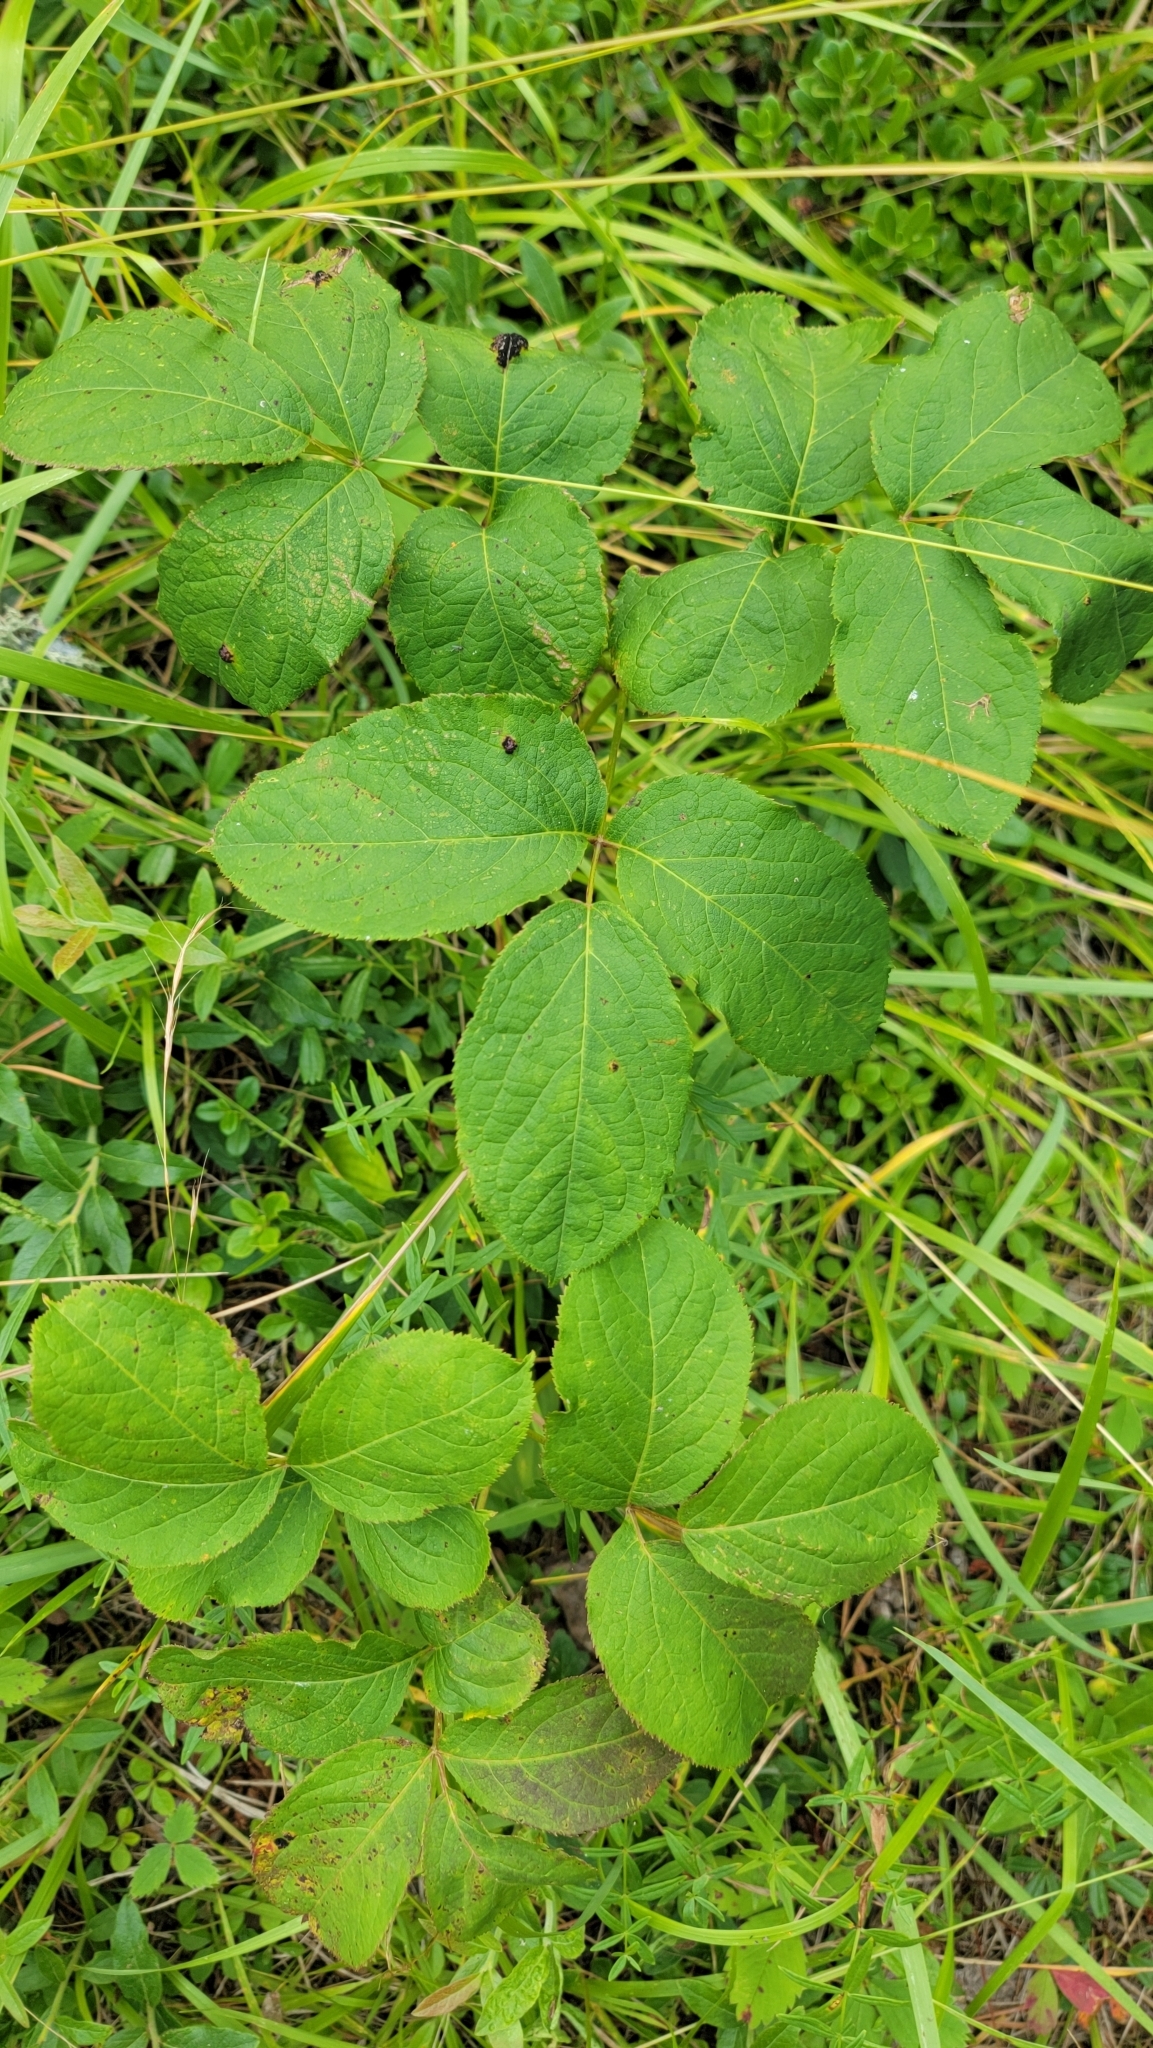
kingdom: Plantae
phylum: Tracheophyta
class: Magnoliopsida
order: Apiales
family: Araliaceae
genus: Aralia
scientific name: Aralia nudicaulis
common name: Wild sarsaparilla
